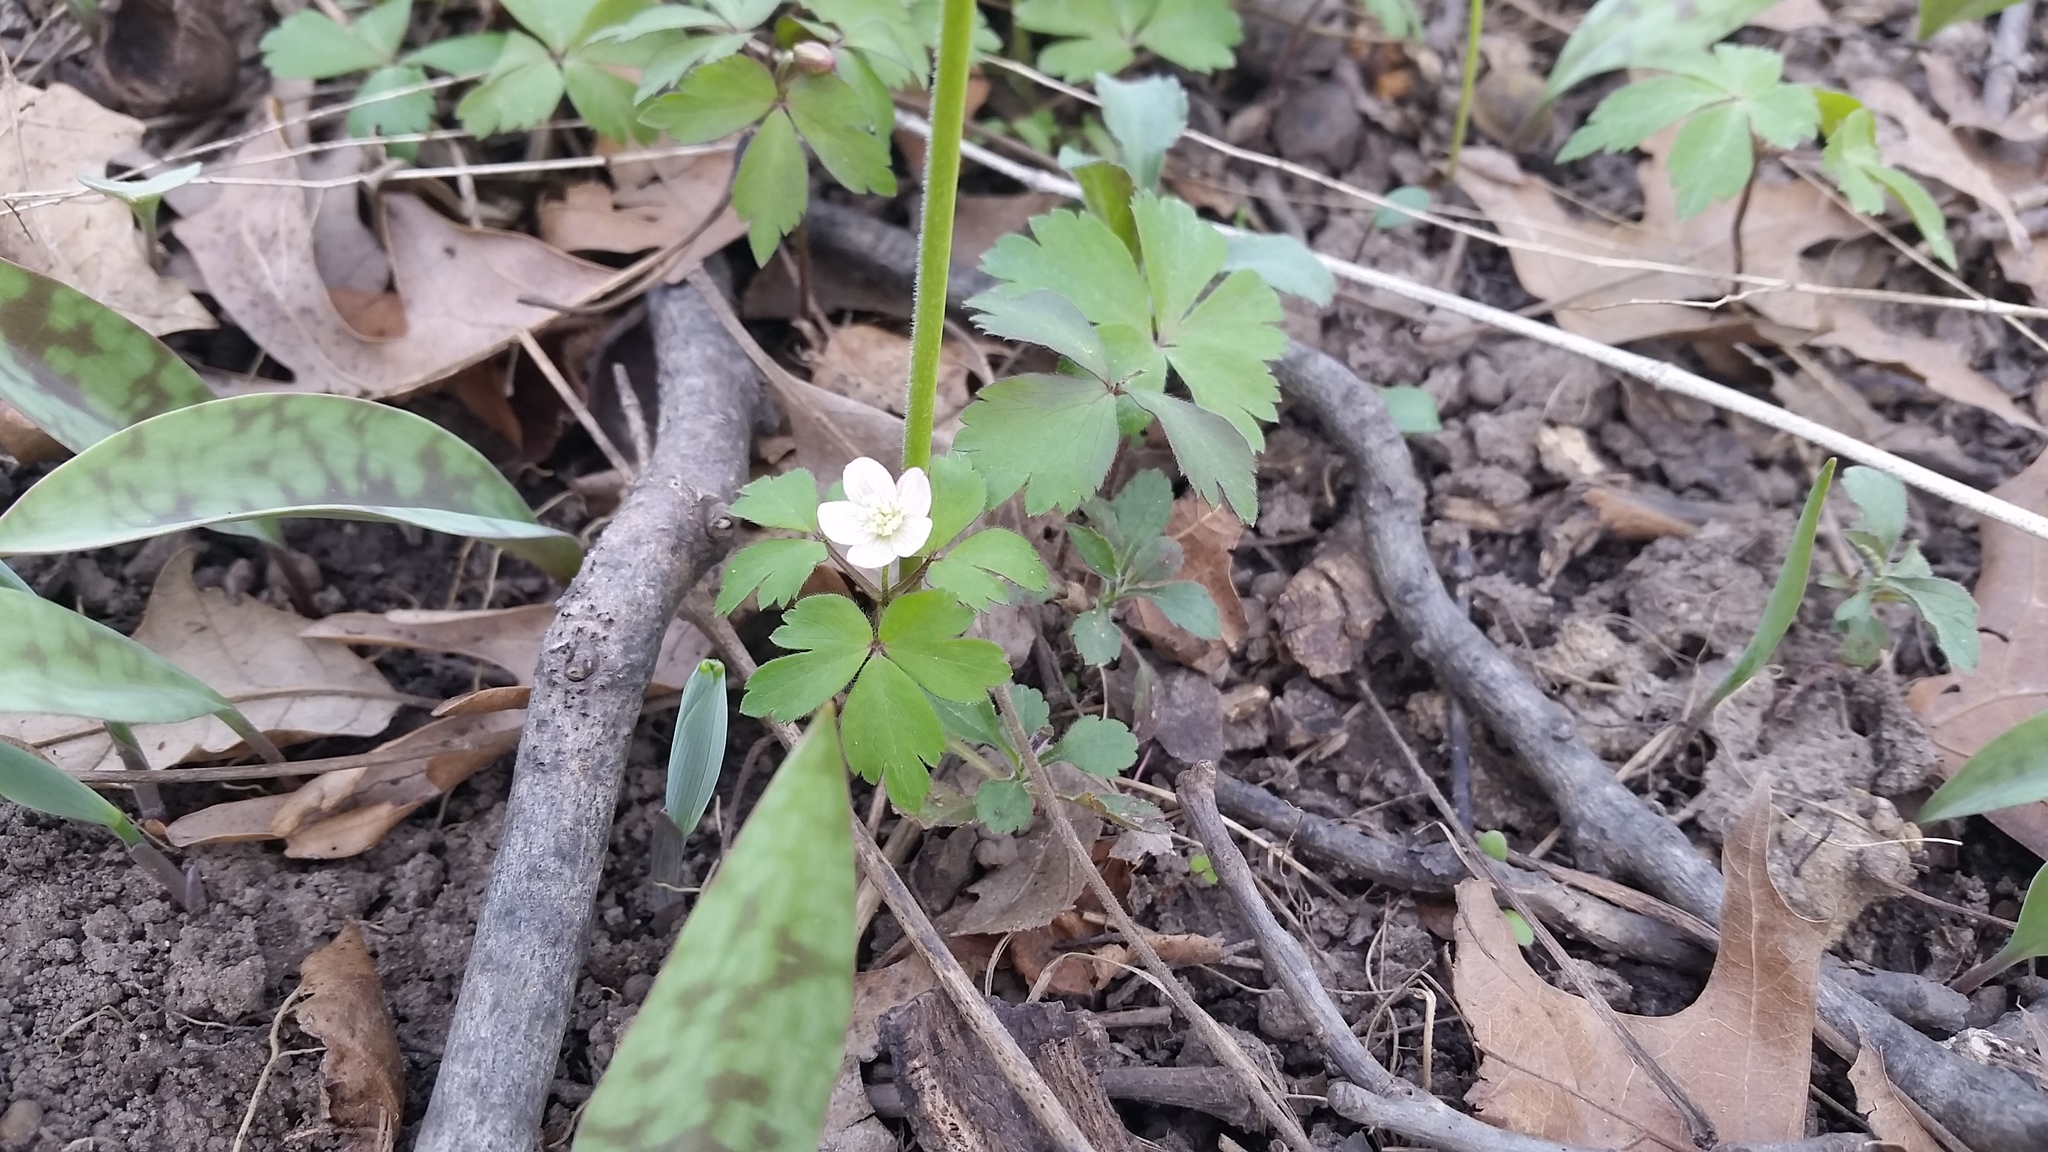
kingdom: Plantae
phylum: Tracheophyta
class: Magnoliopsida
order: Ranunculales
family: Ranunculaceae
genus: Anemone
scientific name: Anemone quinquefolia
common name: Wood anemone
